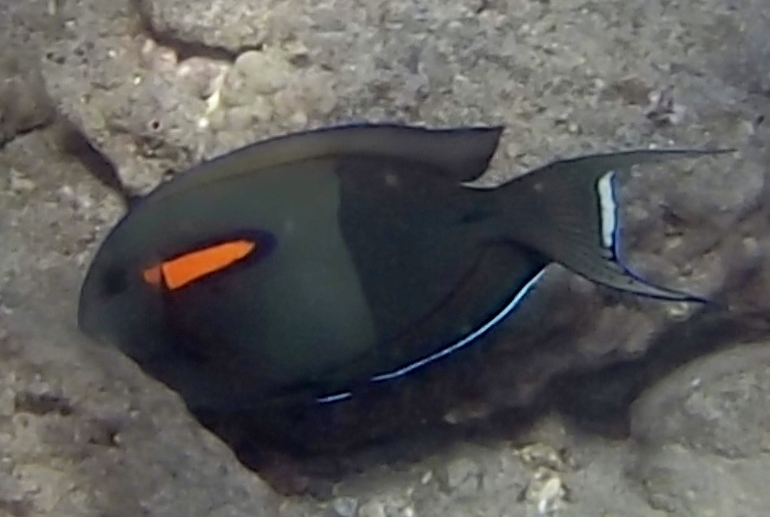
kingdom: Animalia
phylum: Chordata
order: Perciformes
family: Acanthuridae
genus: Acanthurus
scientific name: Acanthurus olivaceus
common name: Gendarme fish
